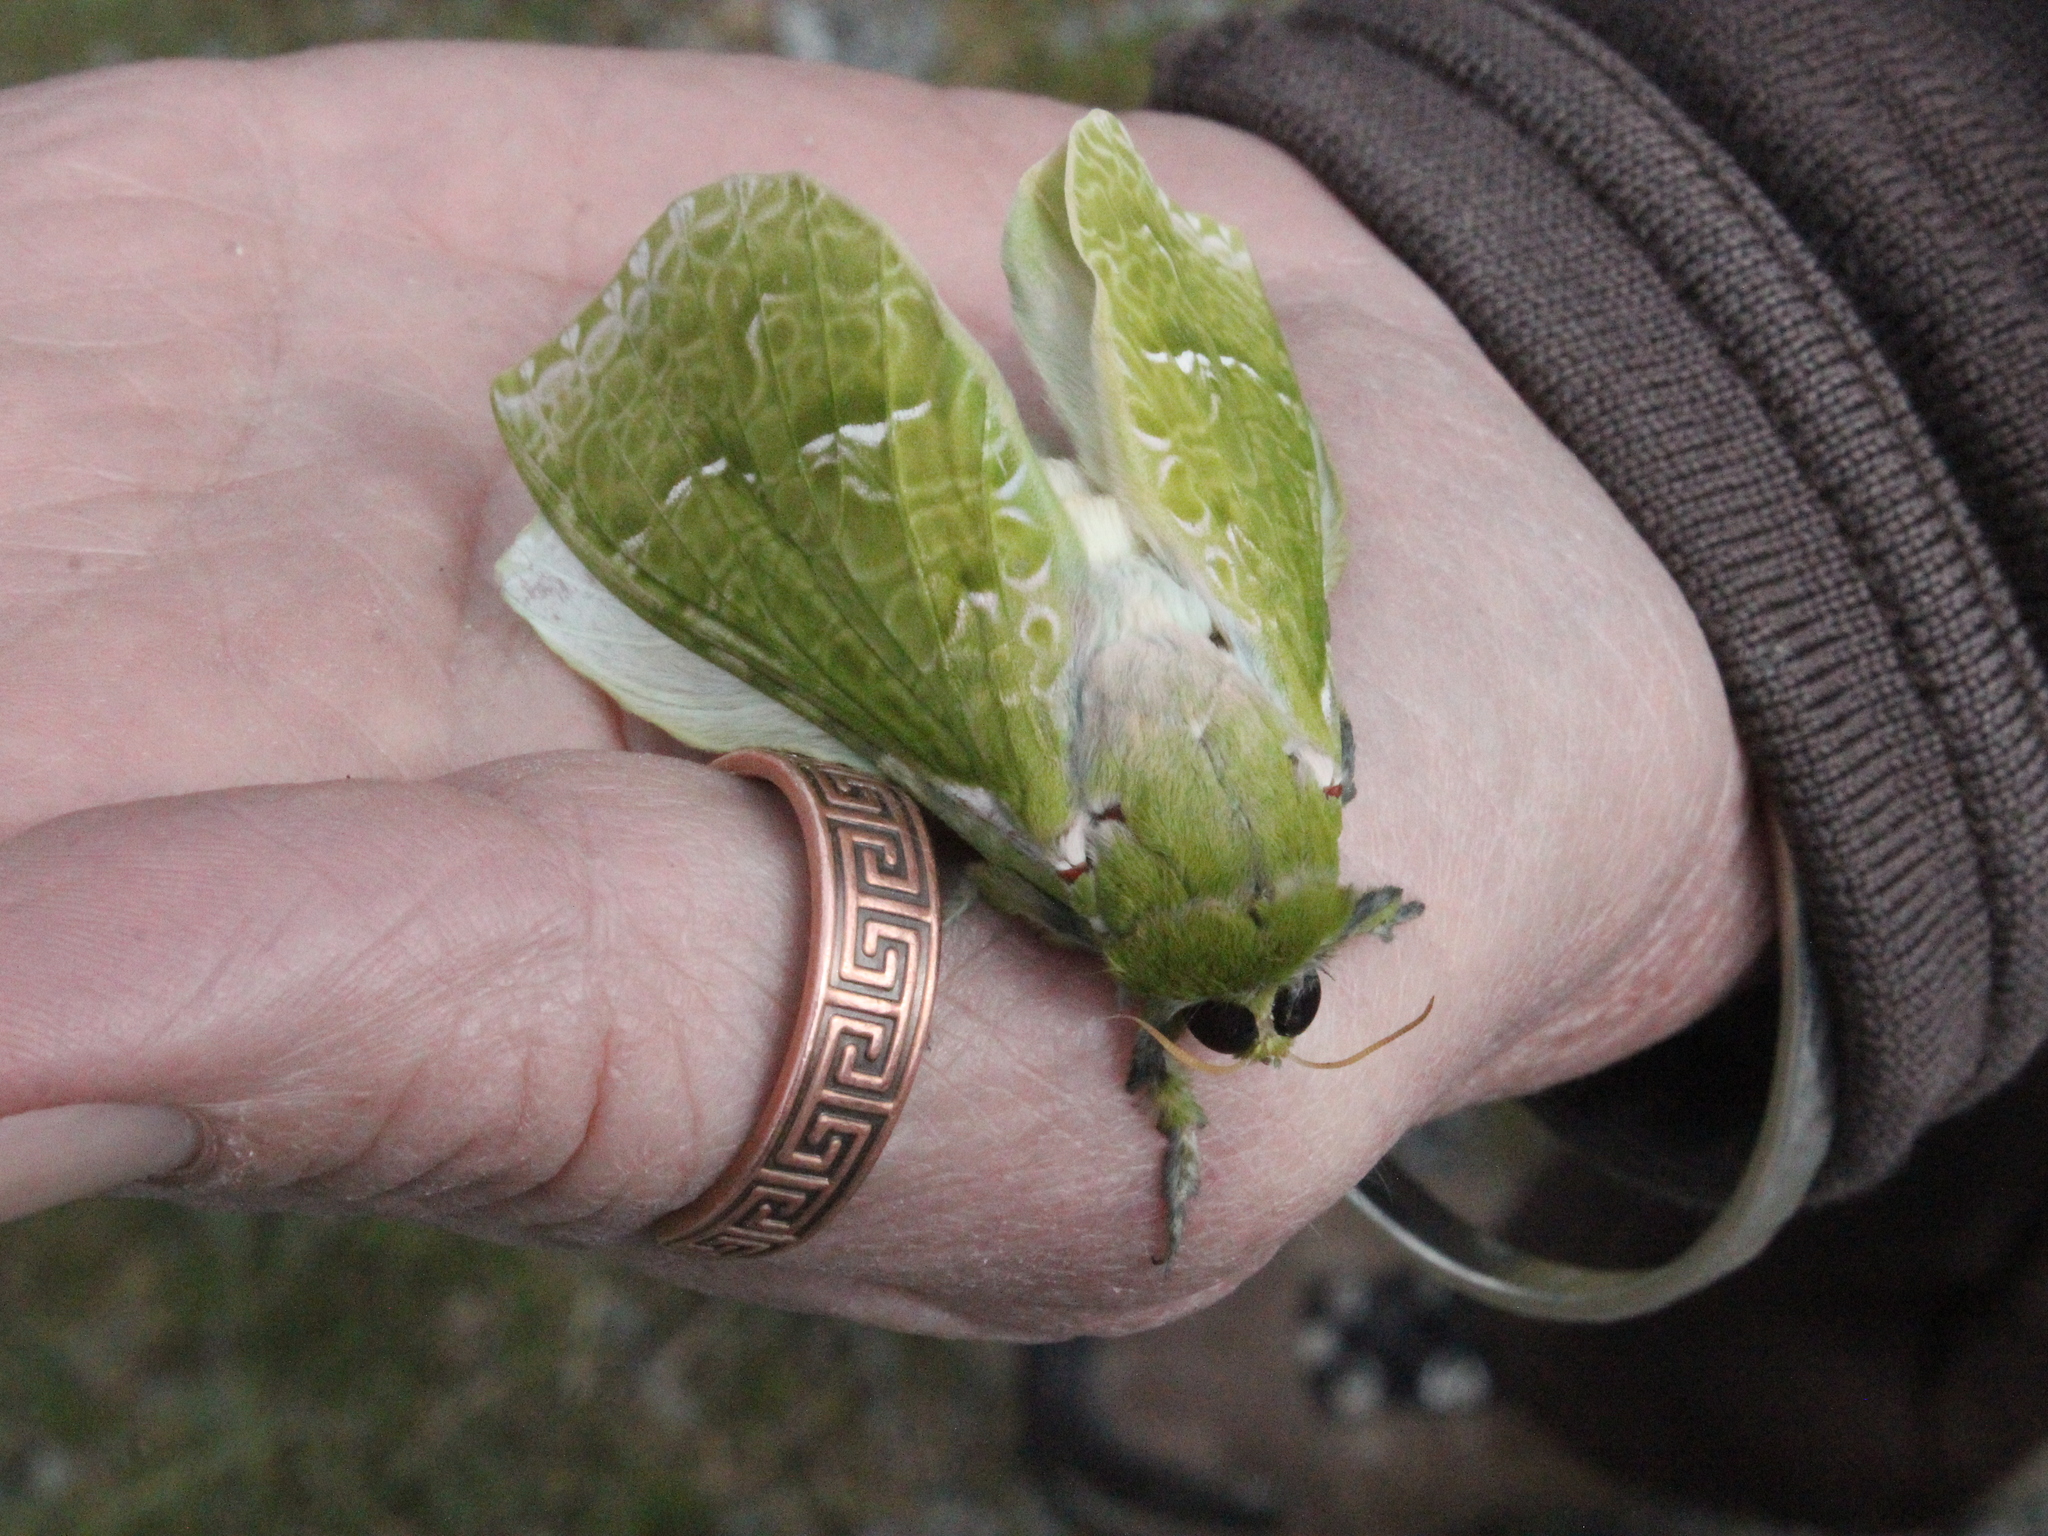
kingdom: Animalia
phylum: Arthropoda
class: Insecta
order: Lepidoptera
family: Hepialidae
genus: Aenetus
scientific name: Aenetus virescens
